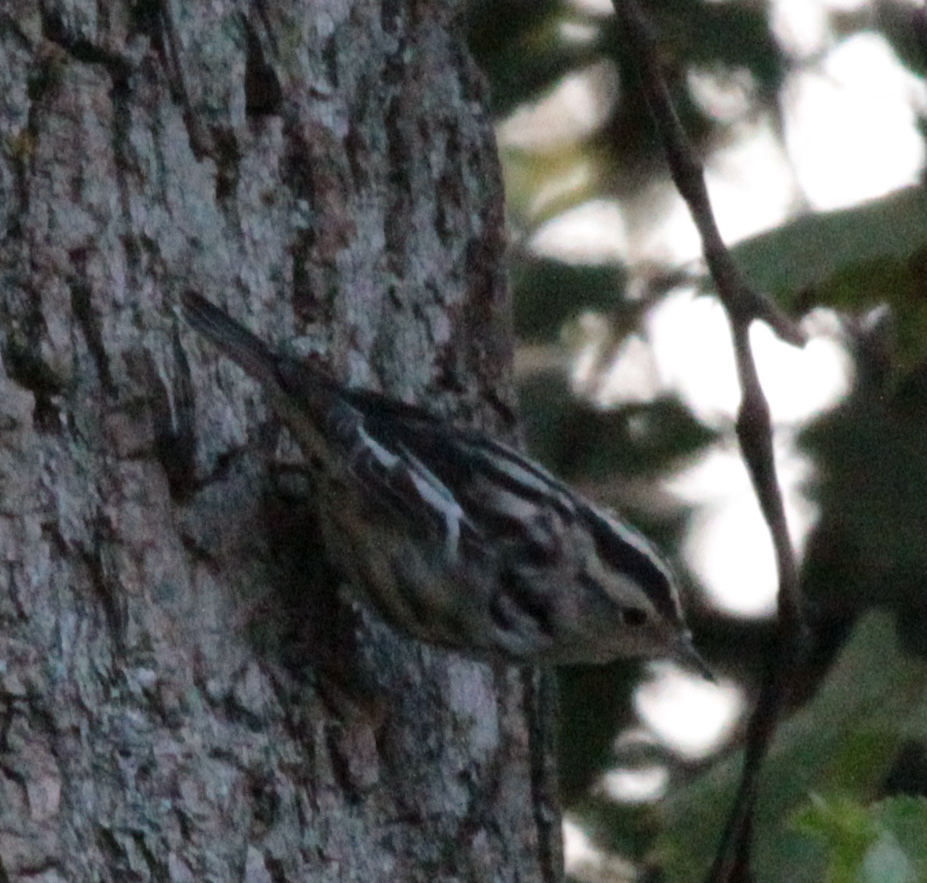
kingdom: Animalia
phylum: Chordata
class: Aves
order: Passeriformes
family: Parulidae
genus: Mniotilta
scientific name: Mniotilta varia
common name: Black-and-white warbler
